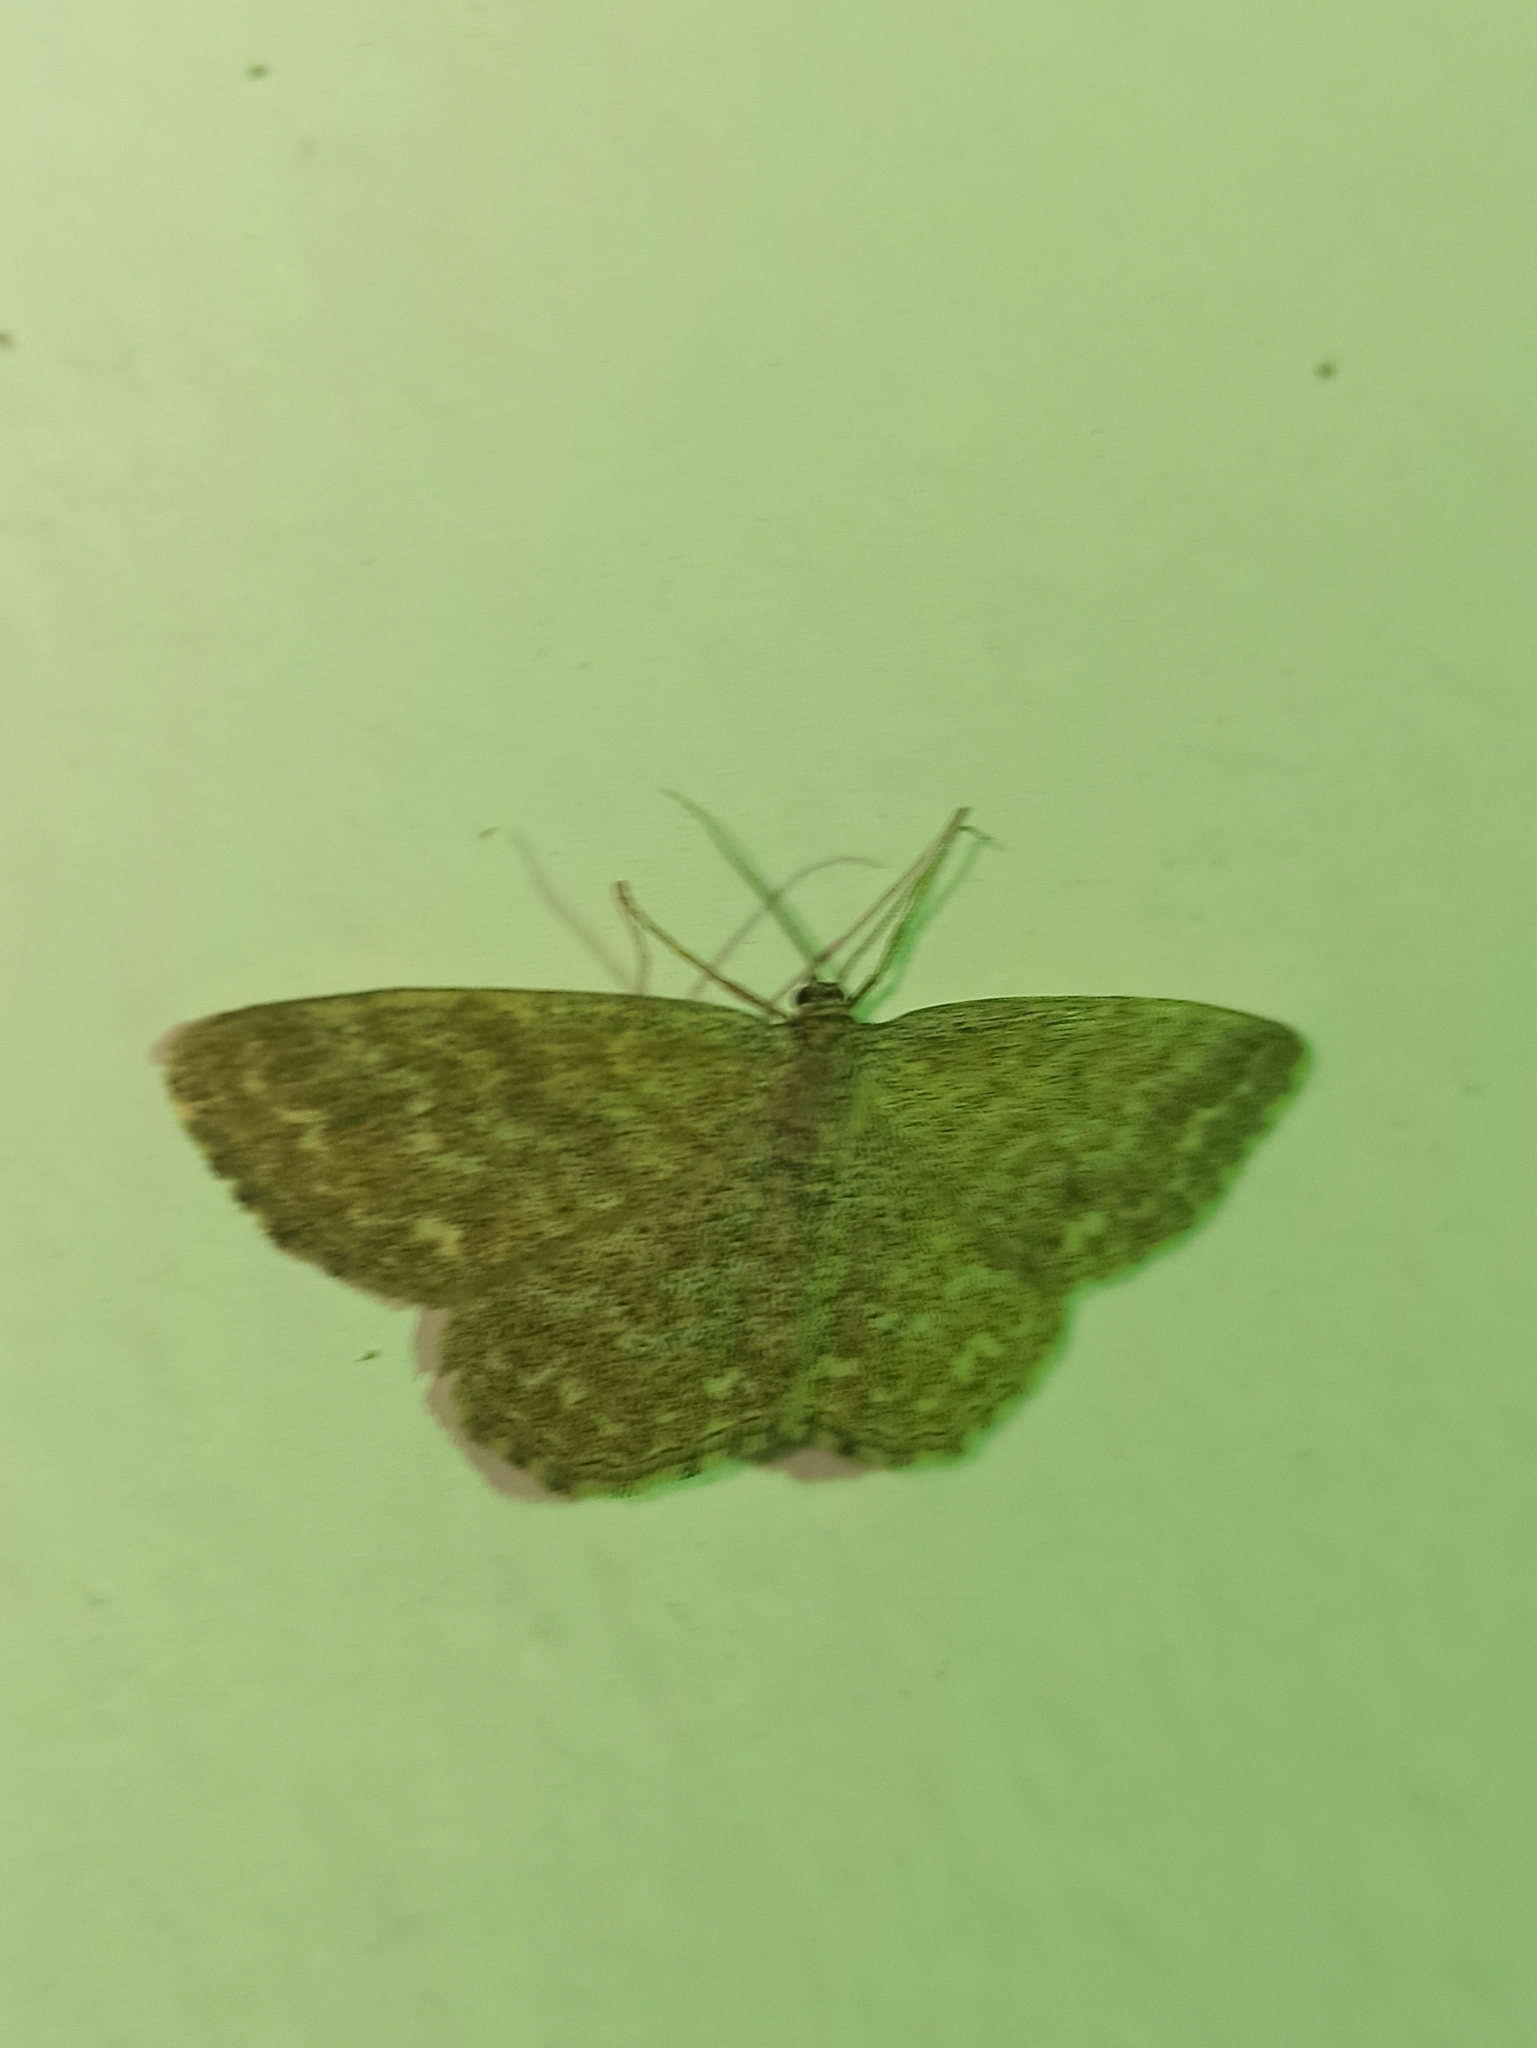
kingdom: Animalia
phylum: Arthropoda
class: Insecta
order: Lepidoptera
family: Geometridae
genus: Scopula
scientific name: Scopula immorata
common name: Lewes wave
